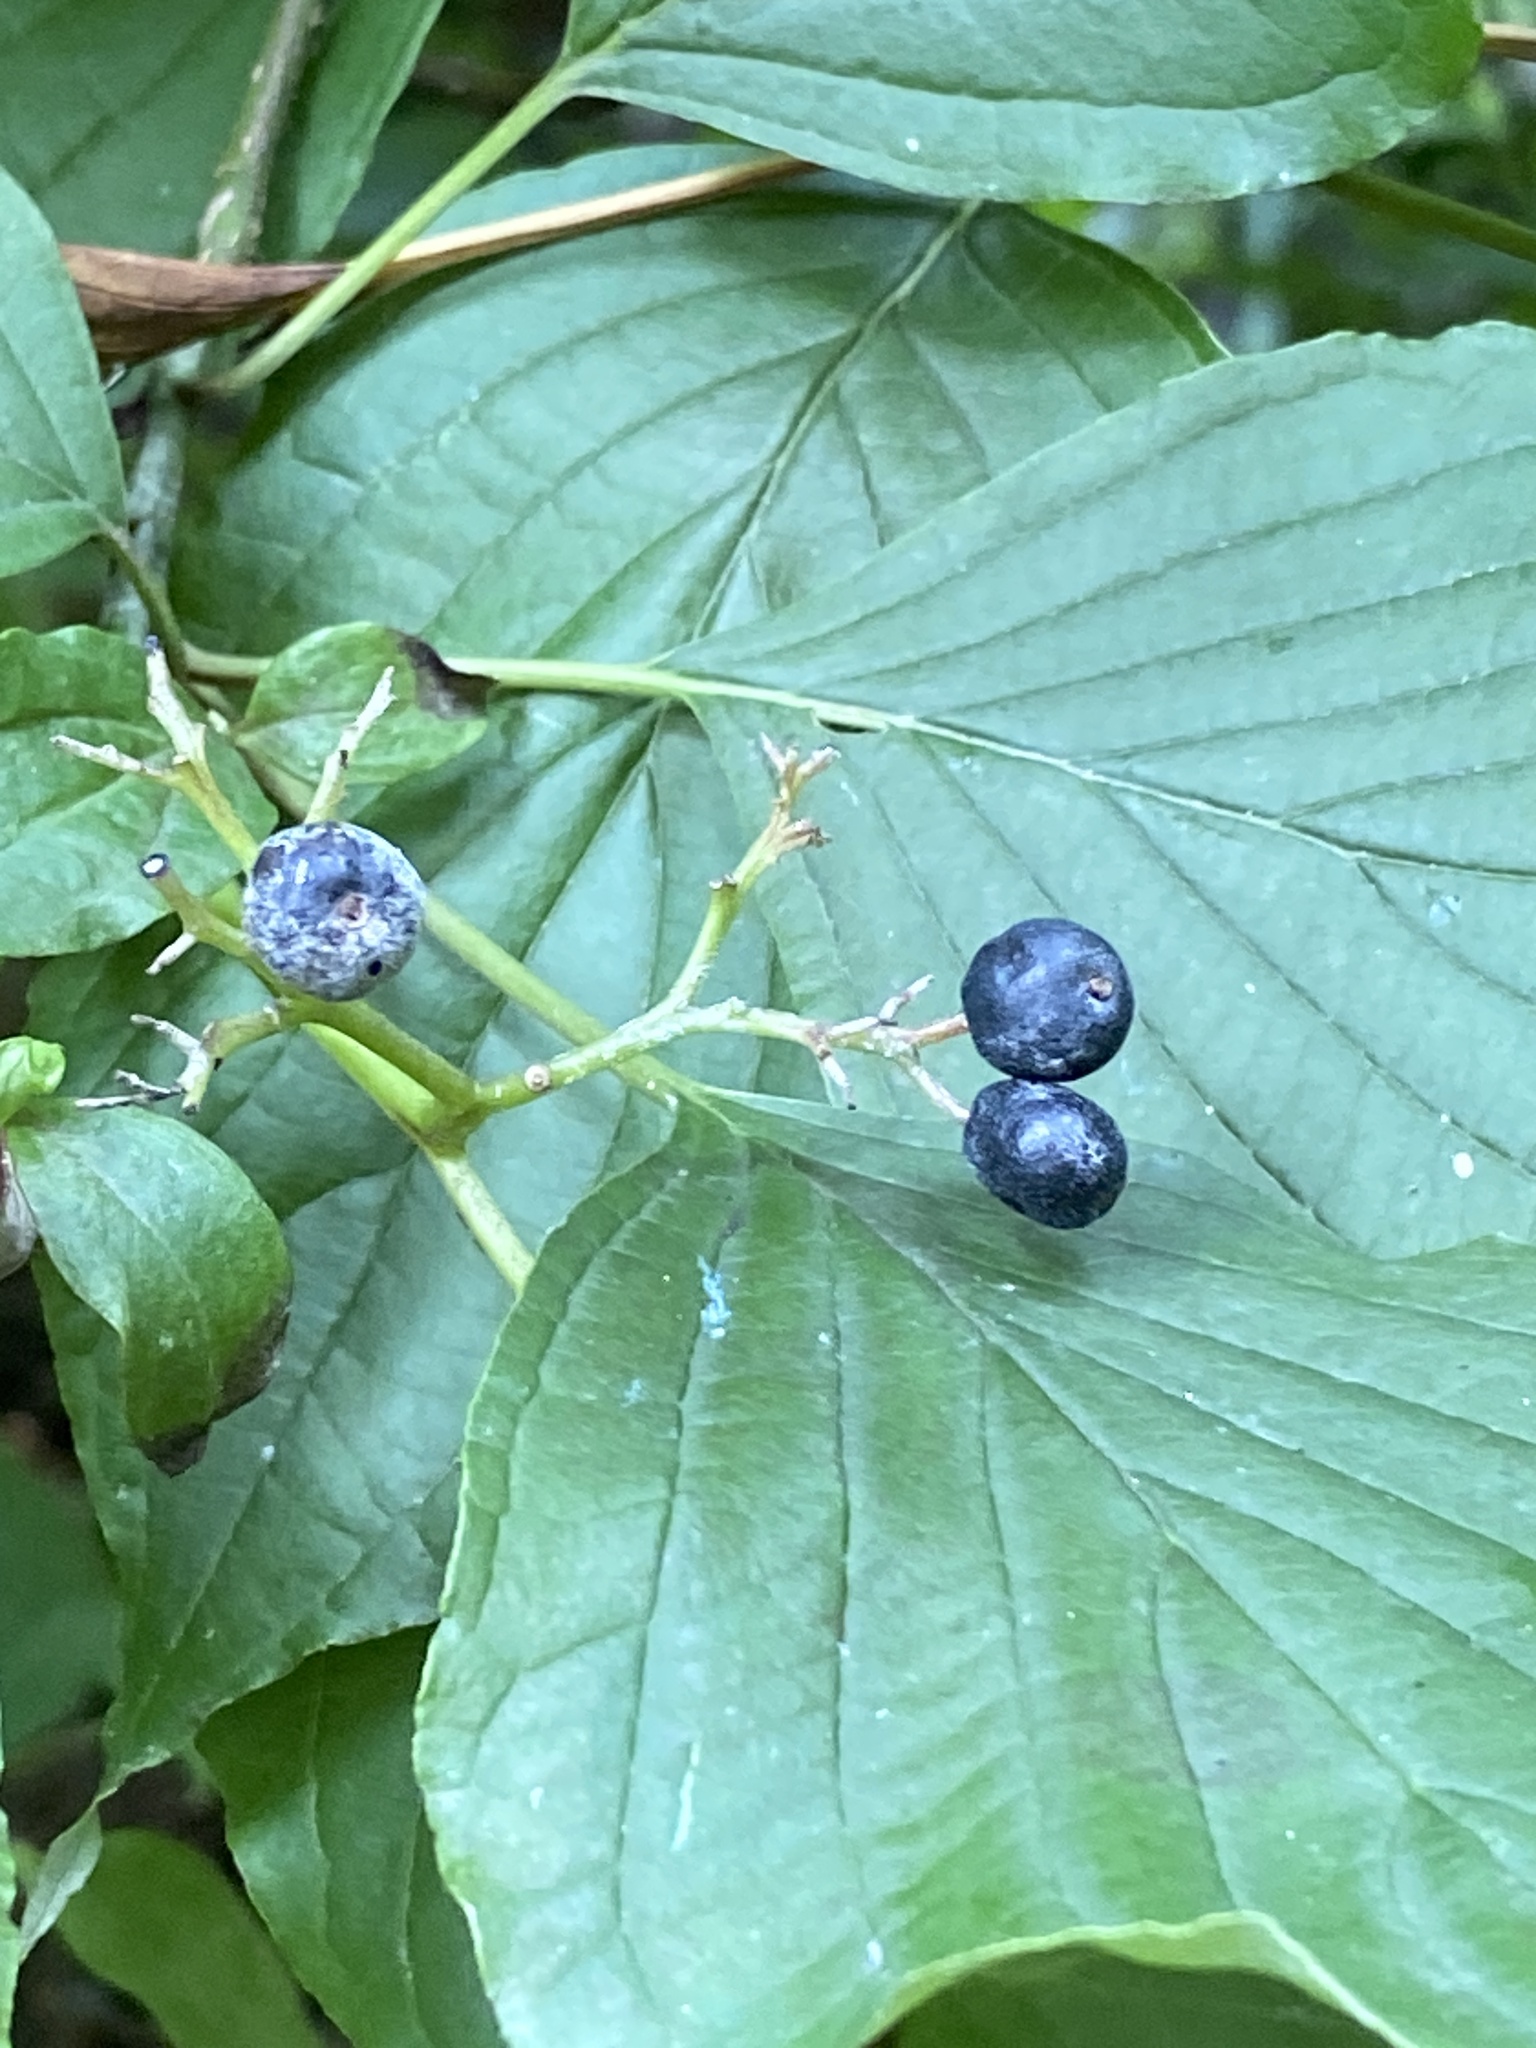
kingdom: Plantae
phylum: Tracheophyta
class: Magnoliopsida
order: Cornales
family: Cornaceae
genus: Cornus
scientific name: Cornus alternifolia
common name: Pagoda dogwood
